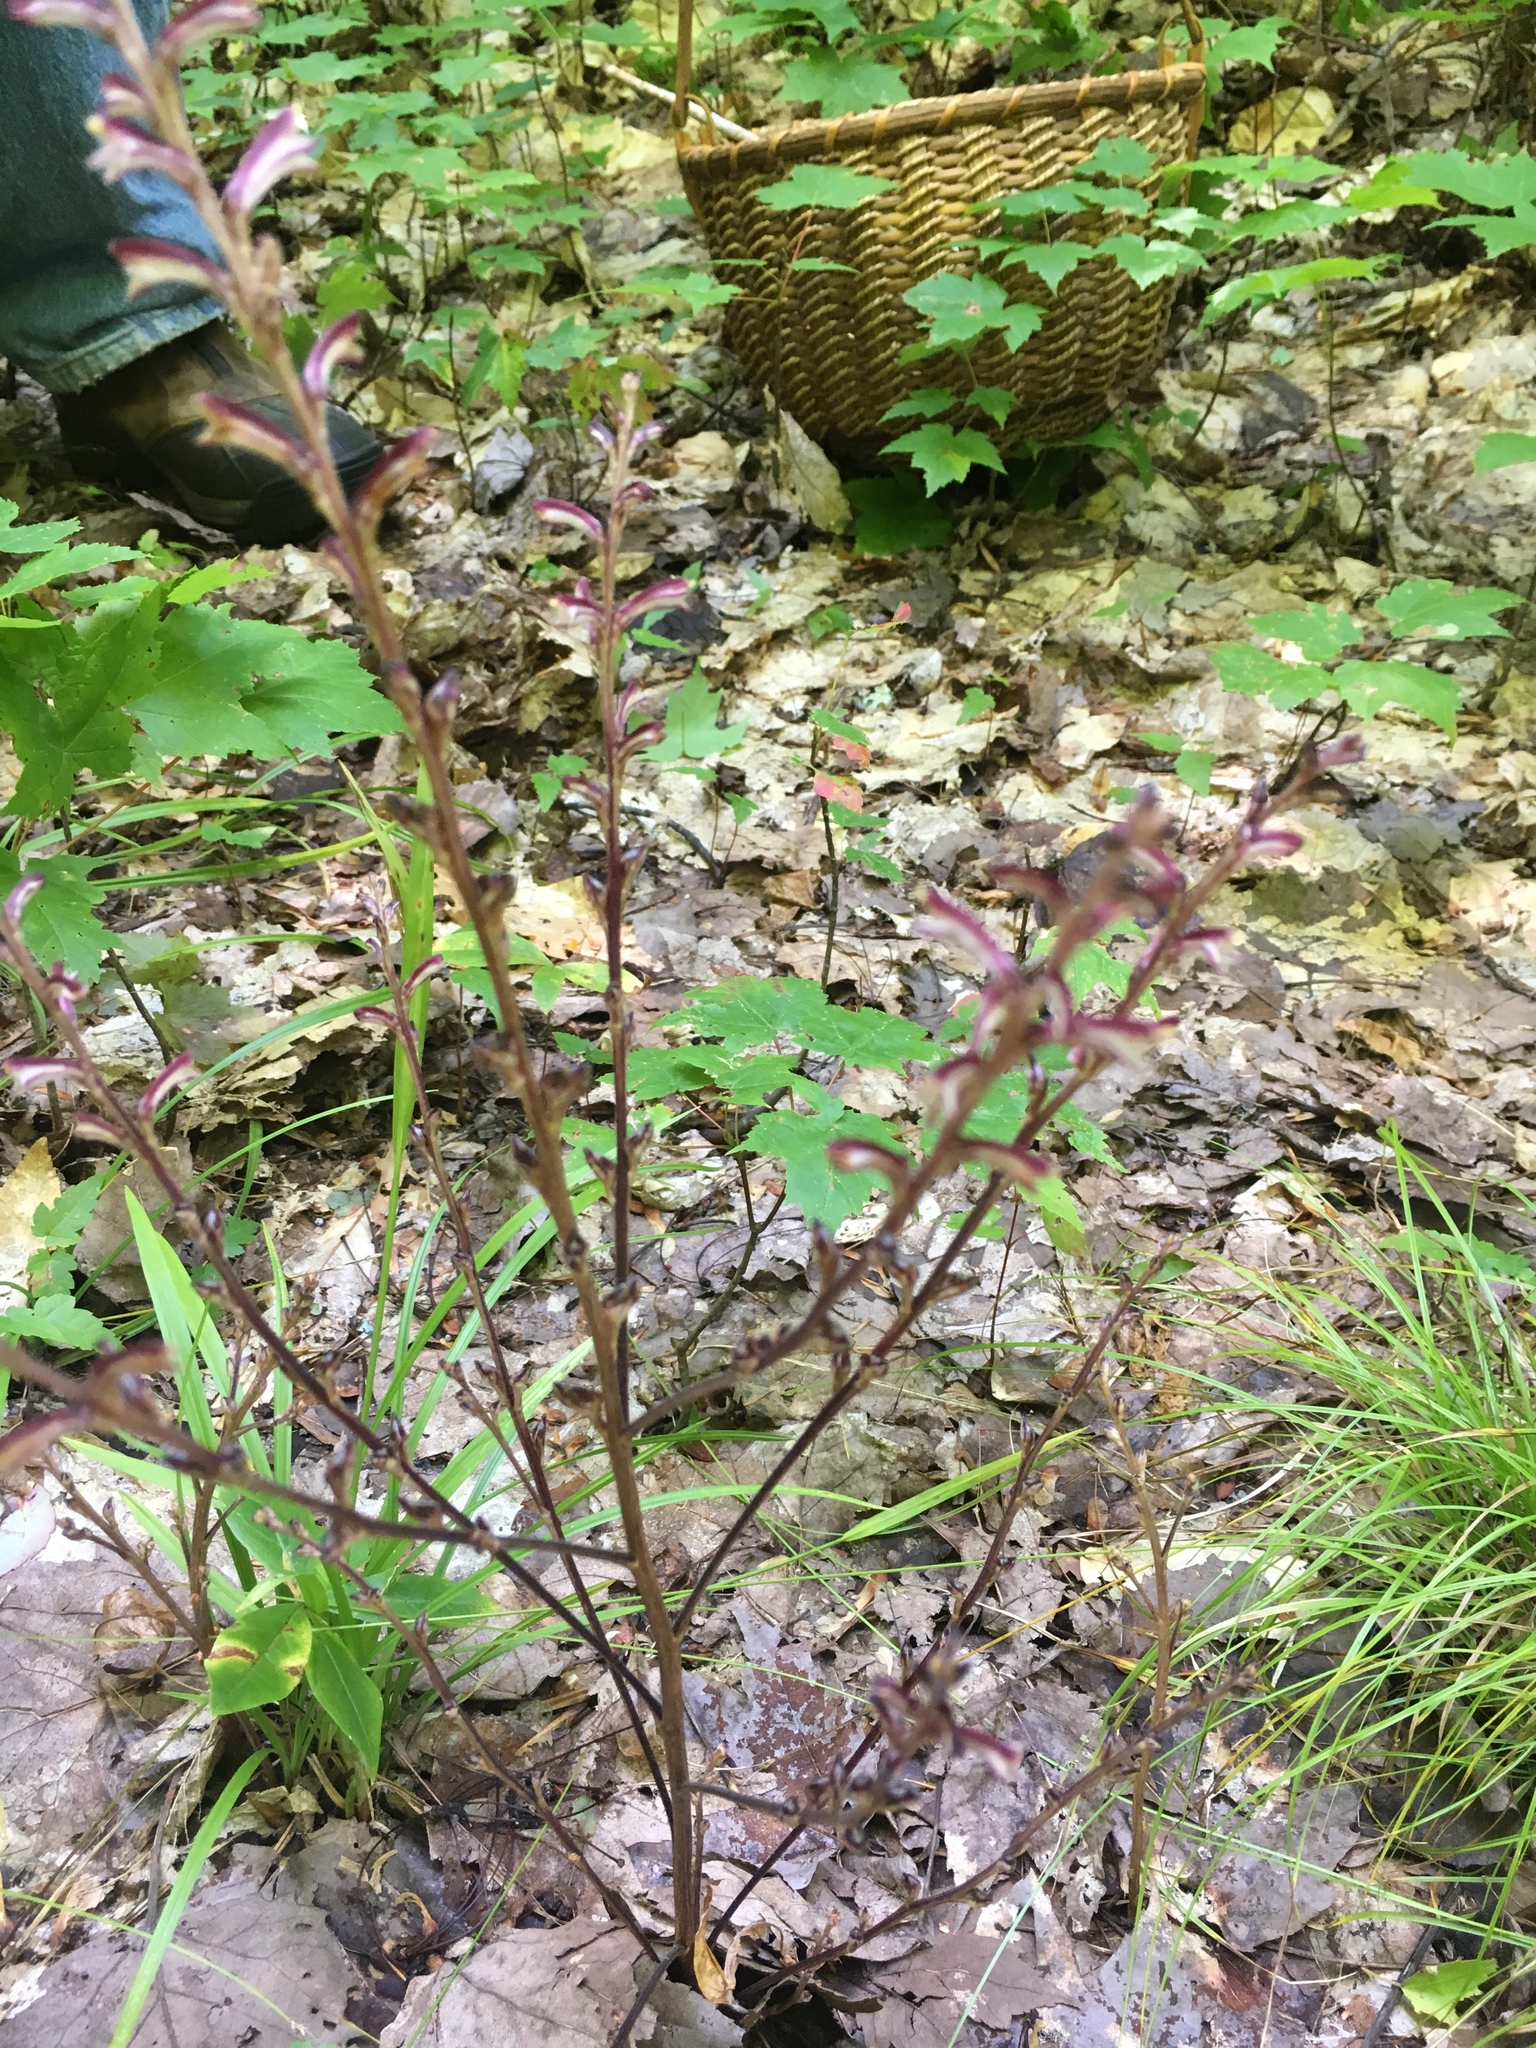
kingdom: Plantae
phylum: Tracheophyta
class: Magnoliopsida
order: Lamiales
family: Orobanchaceae
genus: Epifagus
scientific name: Epifagus virginiana
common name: Beechdrops
